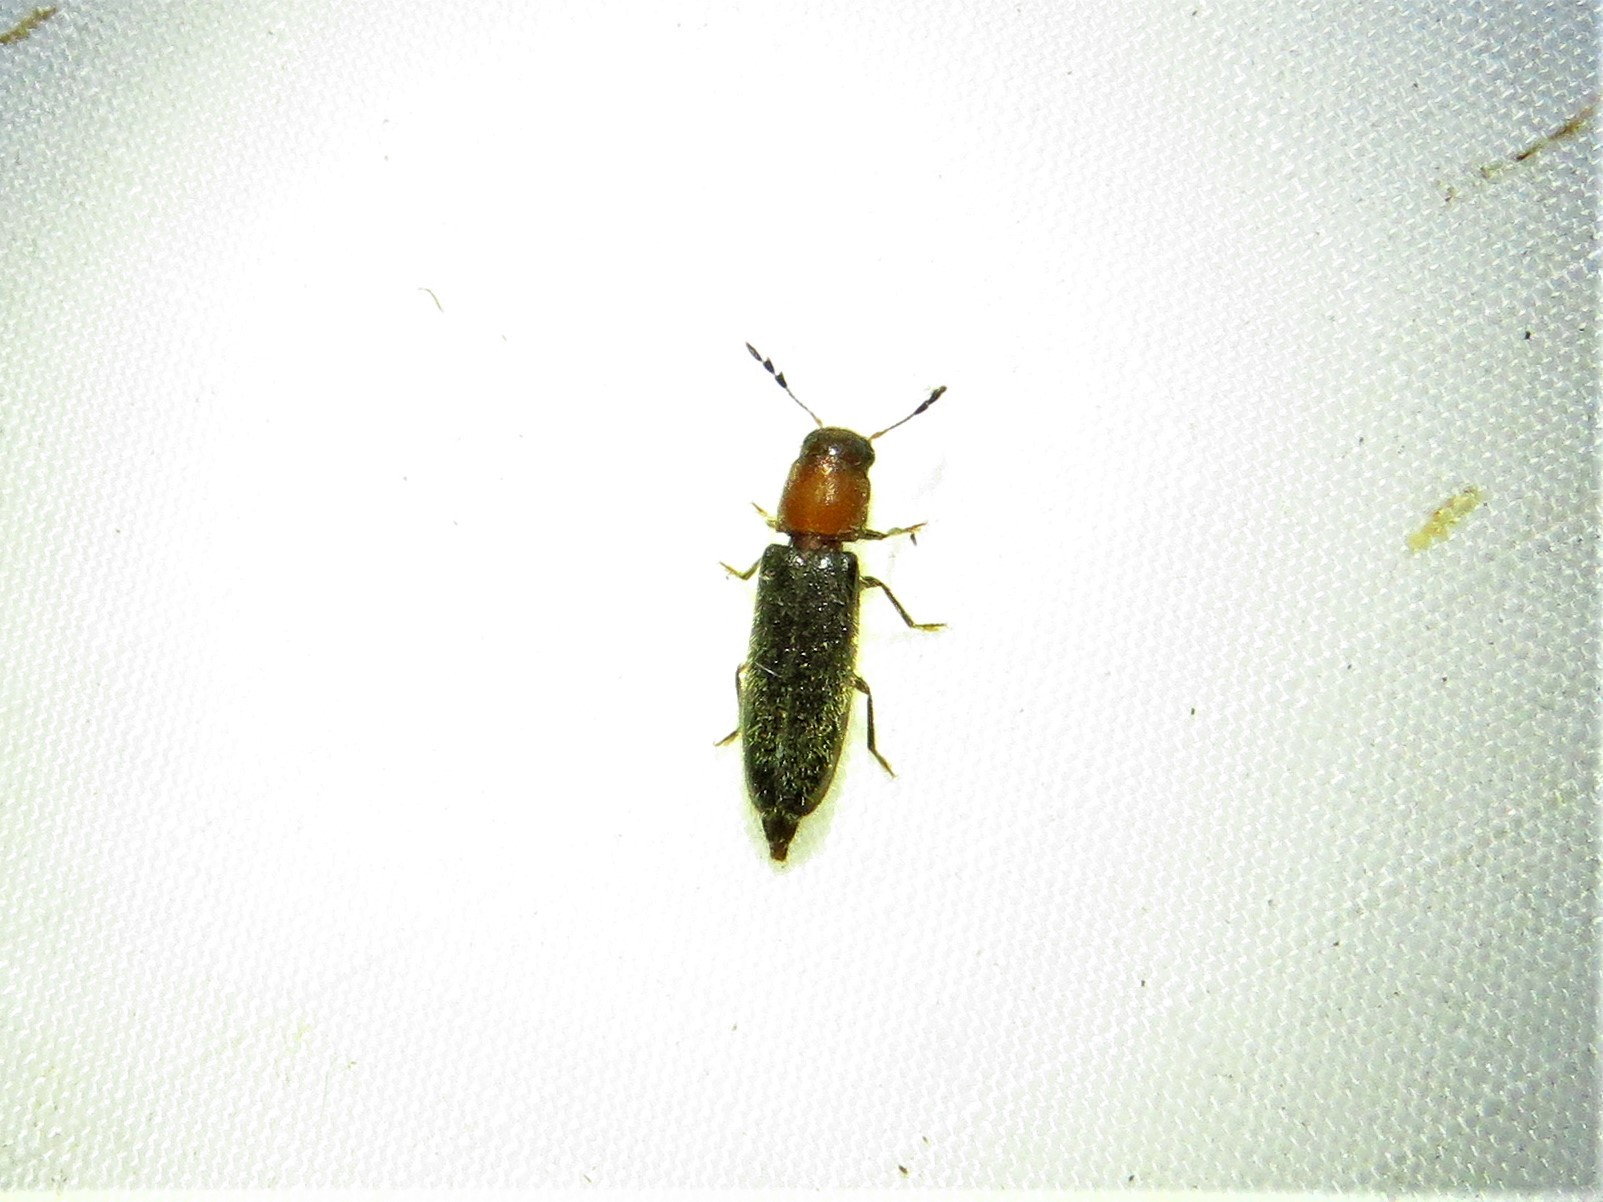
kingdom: Animalia
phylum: Arthropoda
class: Insecta
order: Coleoptera
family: Cleridae
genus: Neorthopleura
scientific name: Neorthopleura texana
